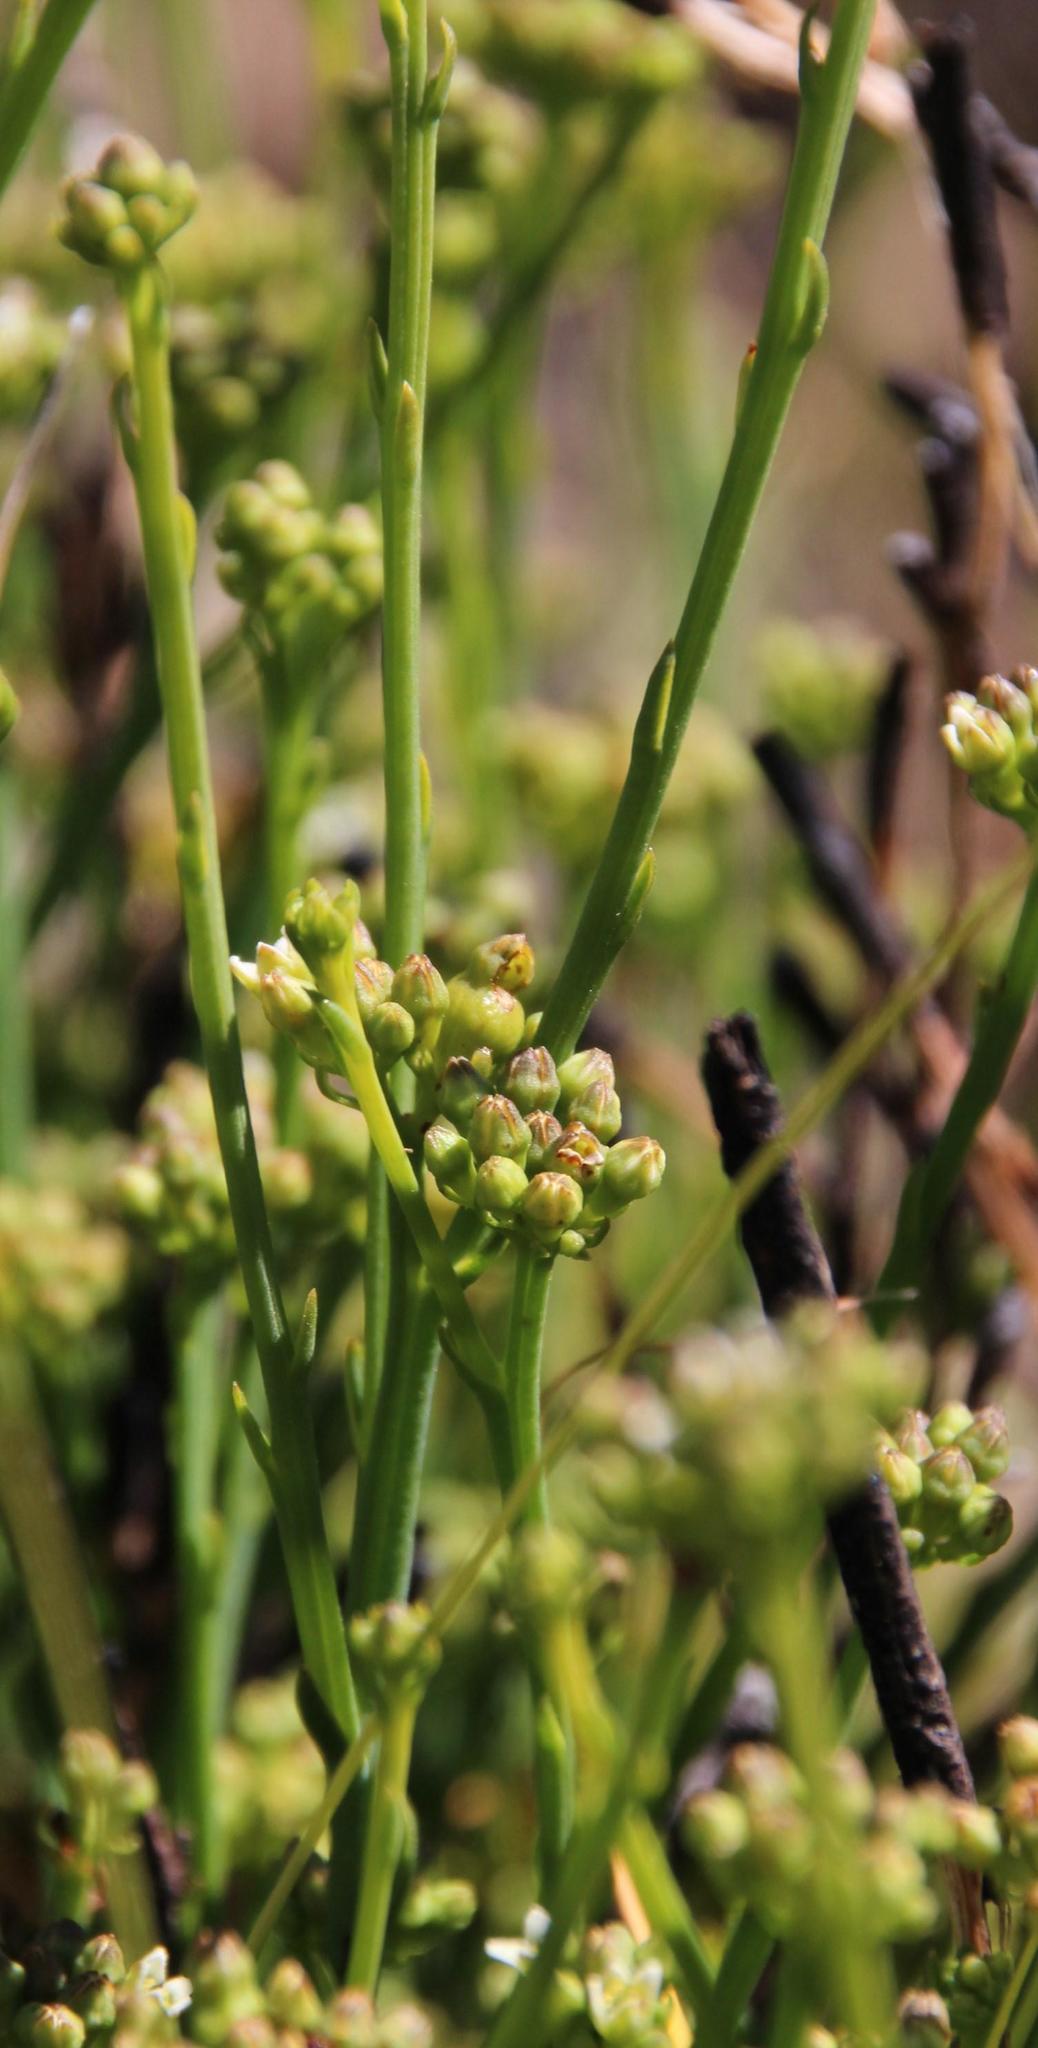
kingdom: Plantae
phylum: Tracheophyta
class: Magnoliopsida
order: Santalales
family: Thesiaceae
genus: Thesium
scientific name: Thesium schumannianum
